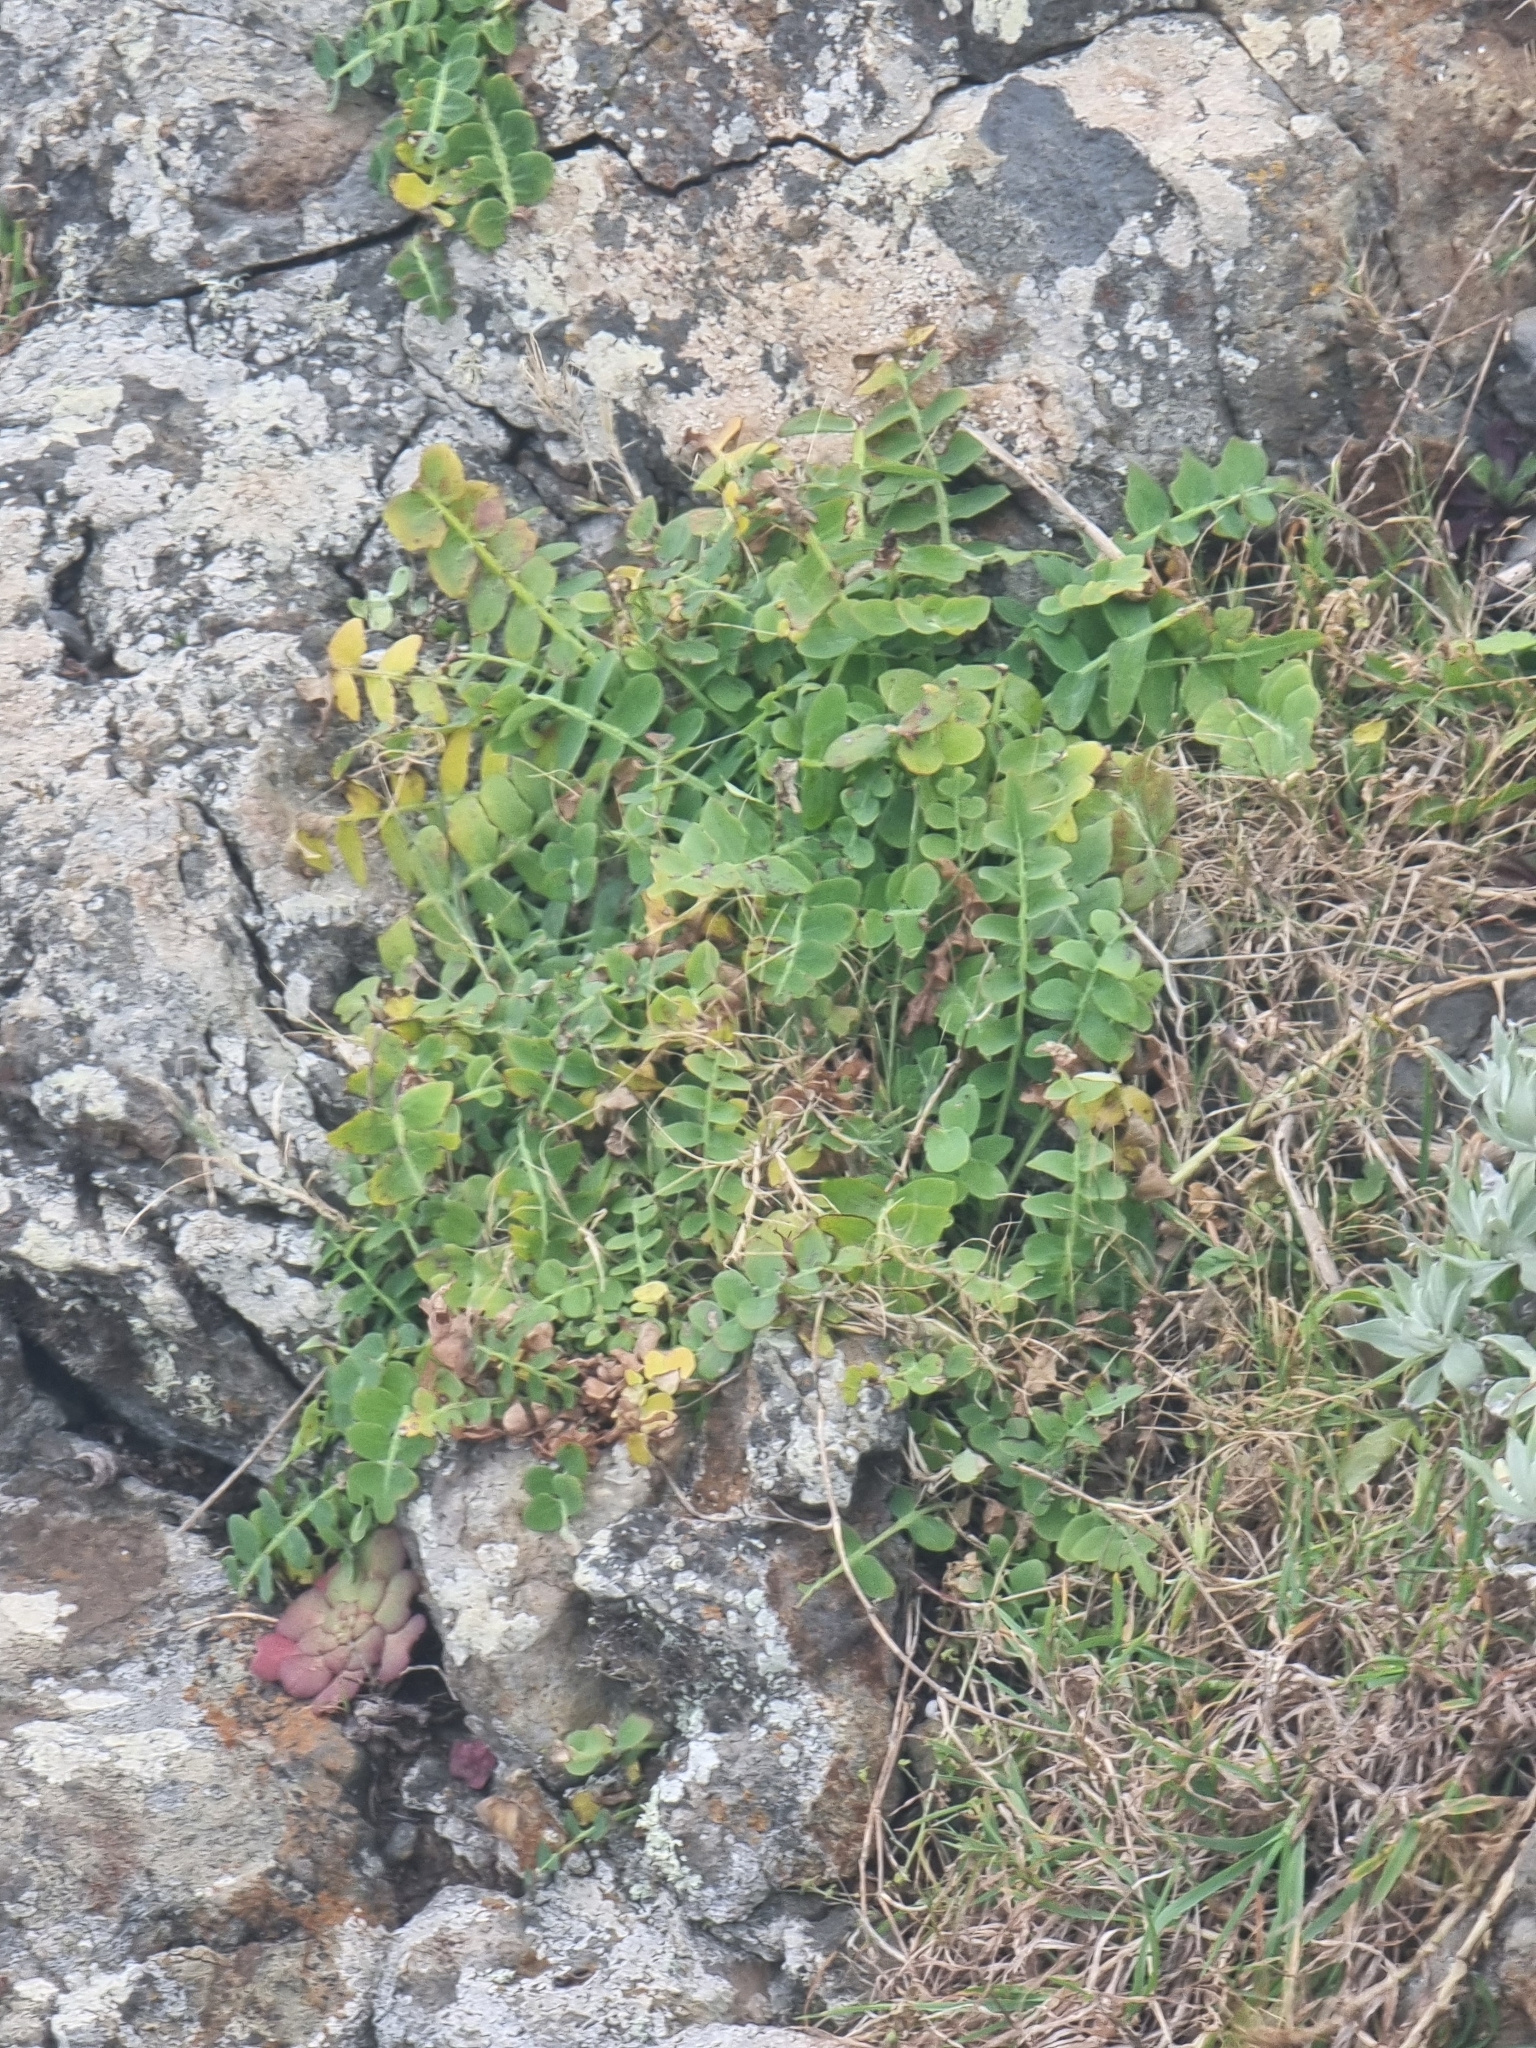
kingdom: Plantae
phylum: Tracheophyta
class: Magnoliopsida
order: Asterales
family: Asteraceae
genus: Sonchus
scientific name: Sonchus latifolius
